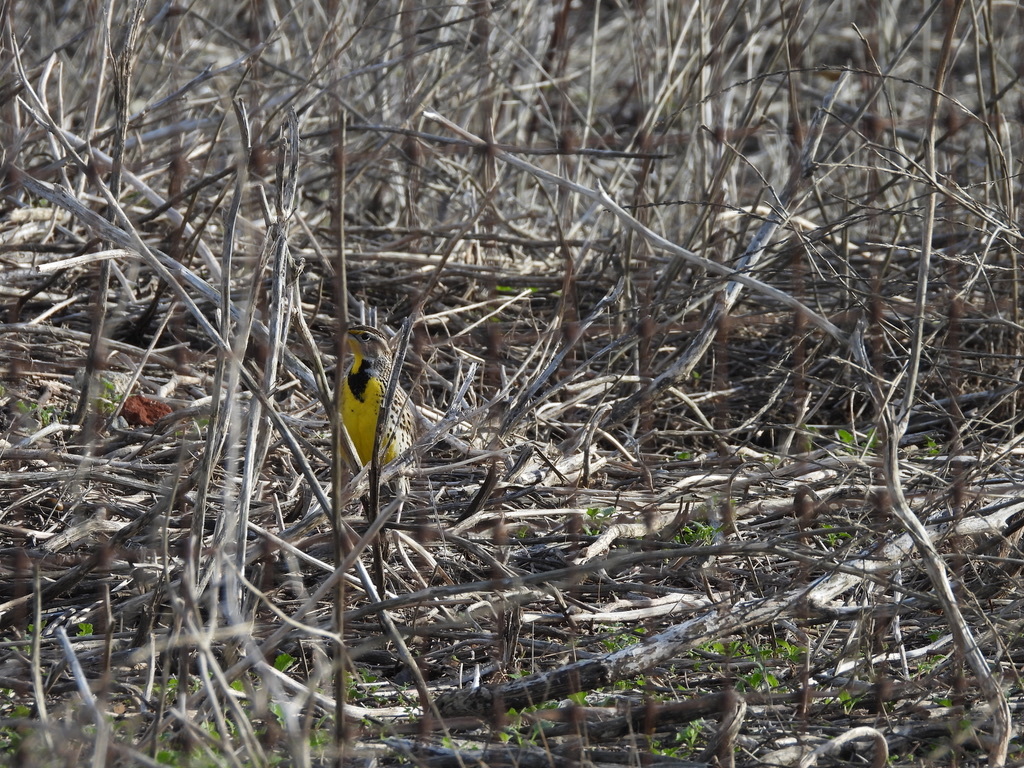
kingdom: Animalia
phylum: Chordata
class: Aves
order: Passeriformes
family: Icteridae
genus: Sturnella
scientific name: Sturnella neglecta
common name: Western meadowlark
